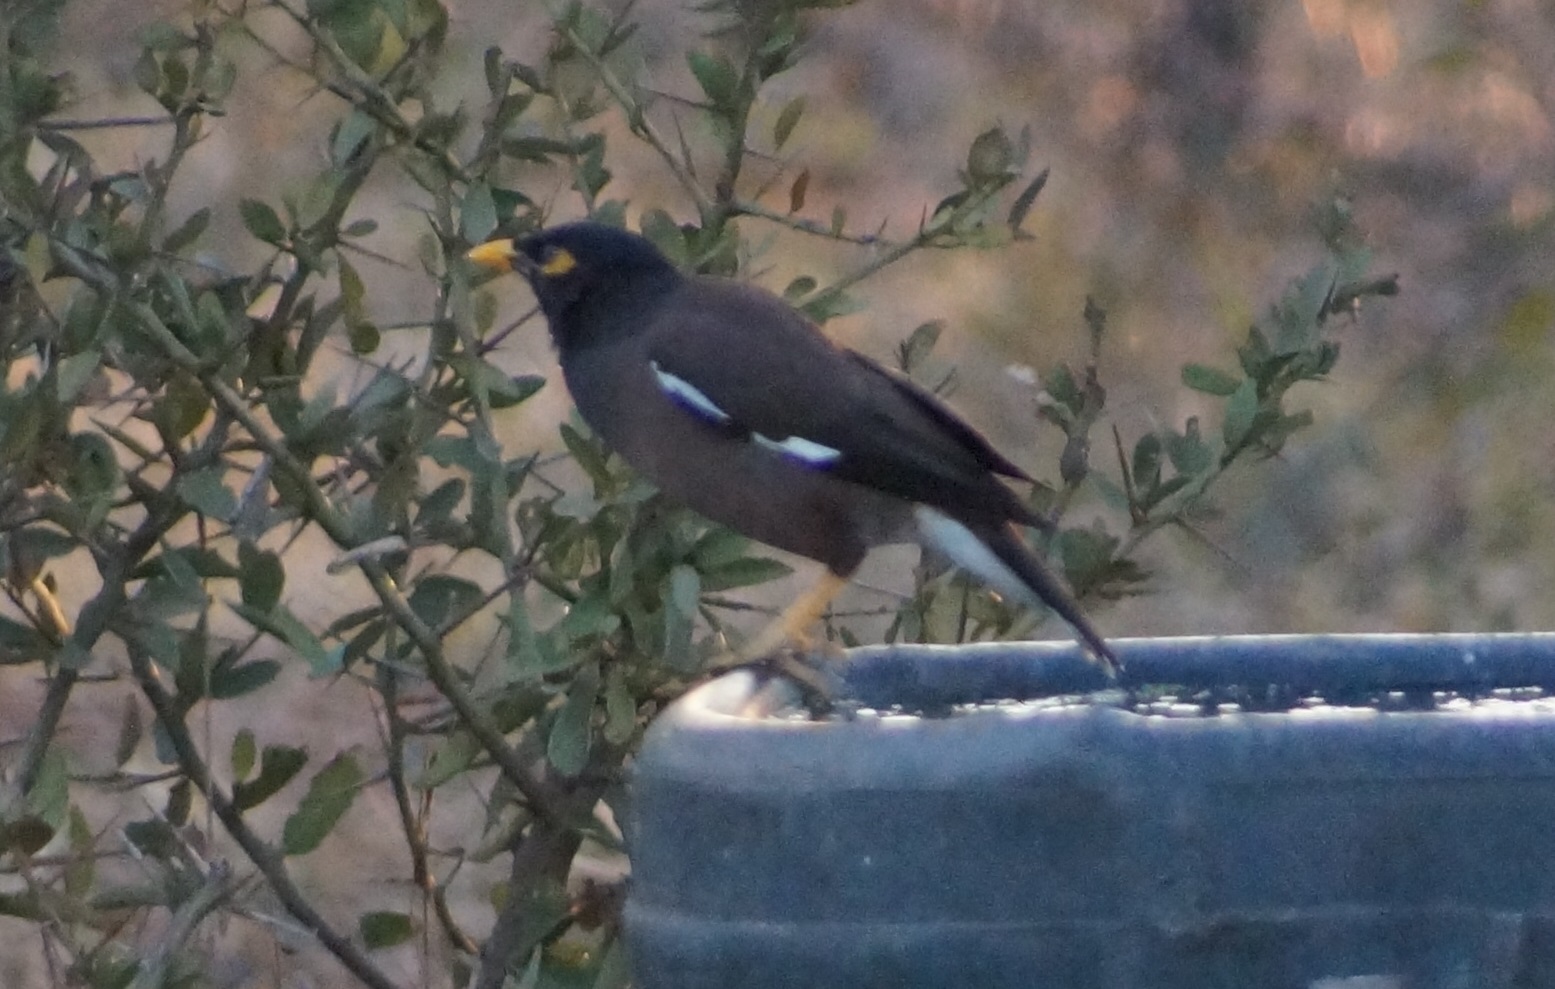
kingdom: Animalia
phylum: Chordata
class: Aves
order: Passeriformes
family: Sturnidae
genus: Acridotheres
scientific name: Acridotheres tristis
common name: Common myna
